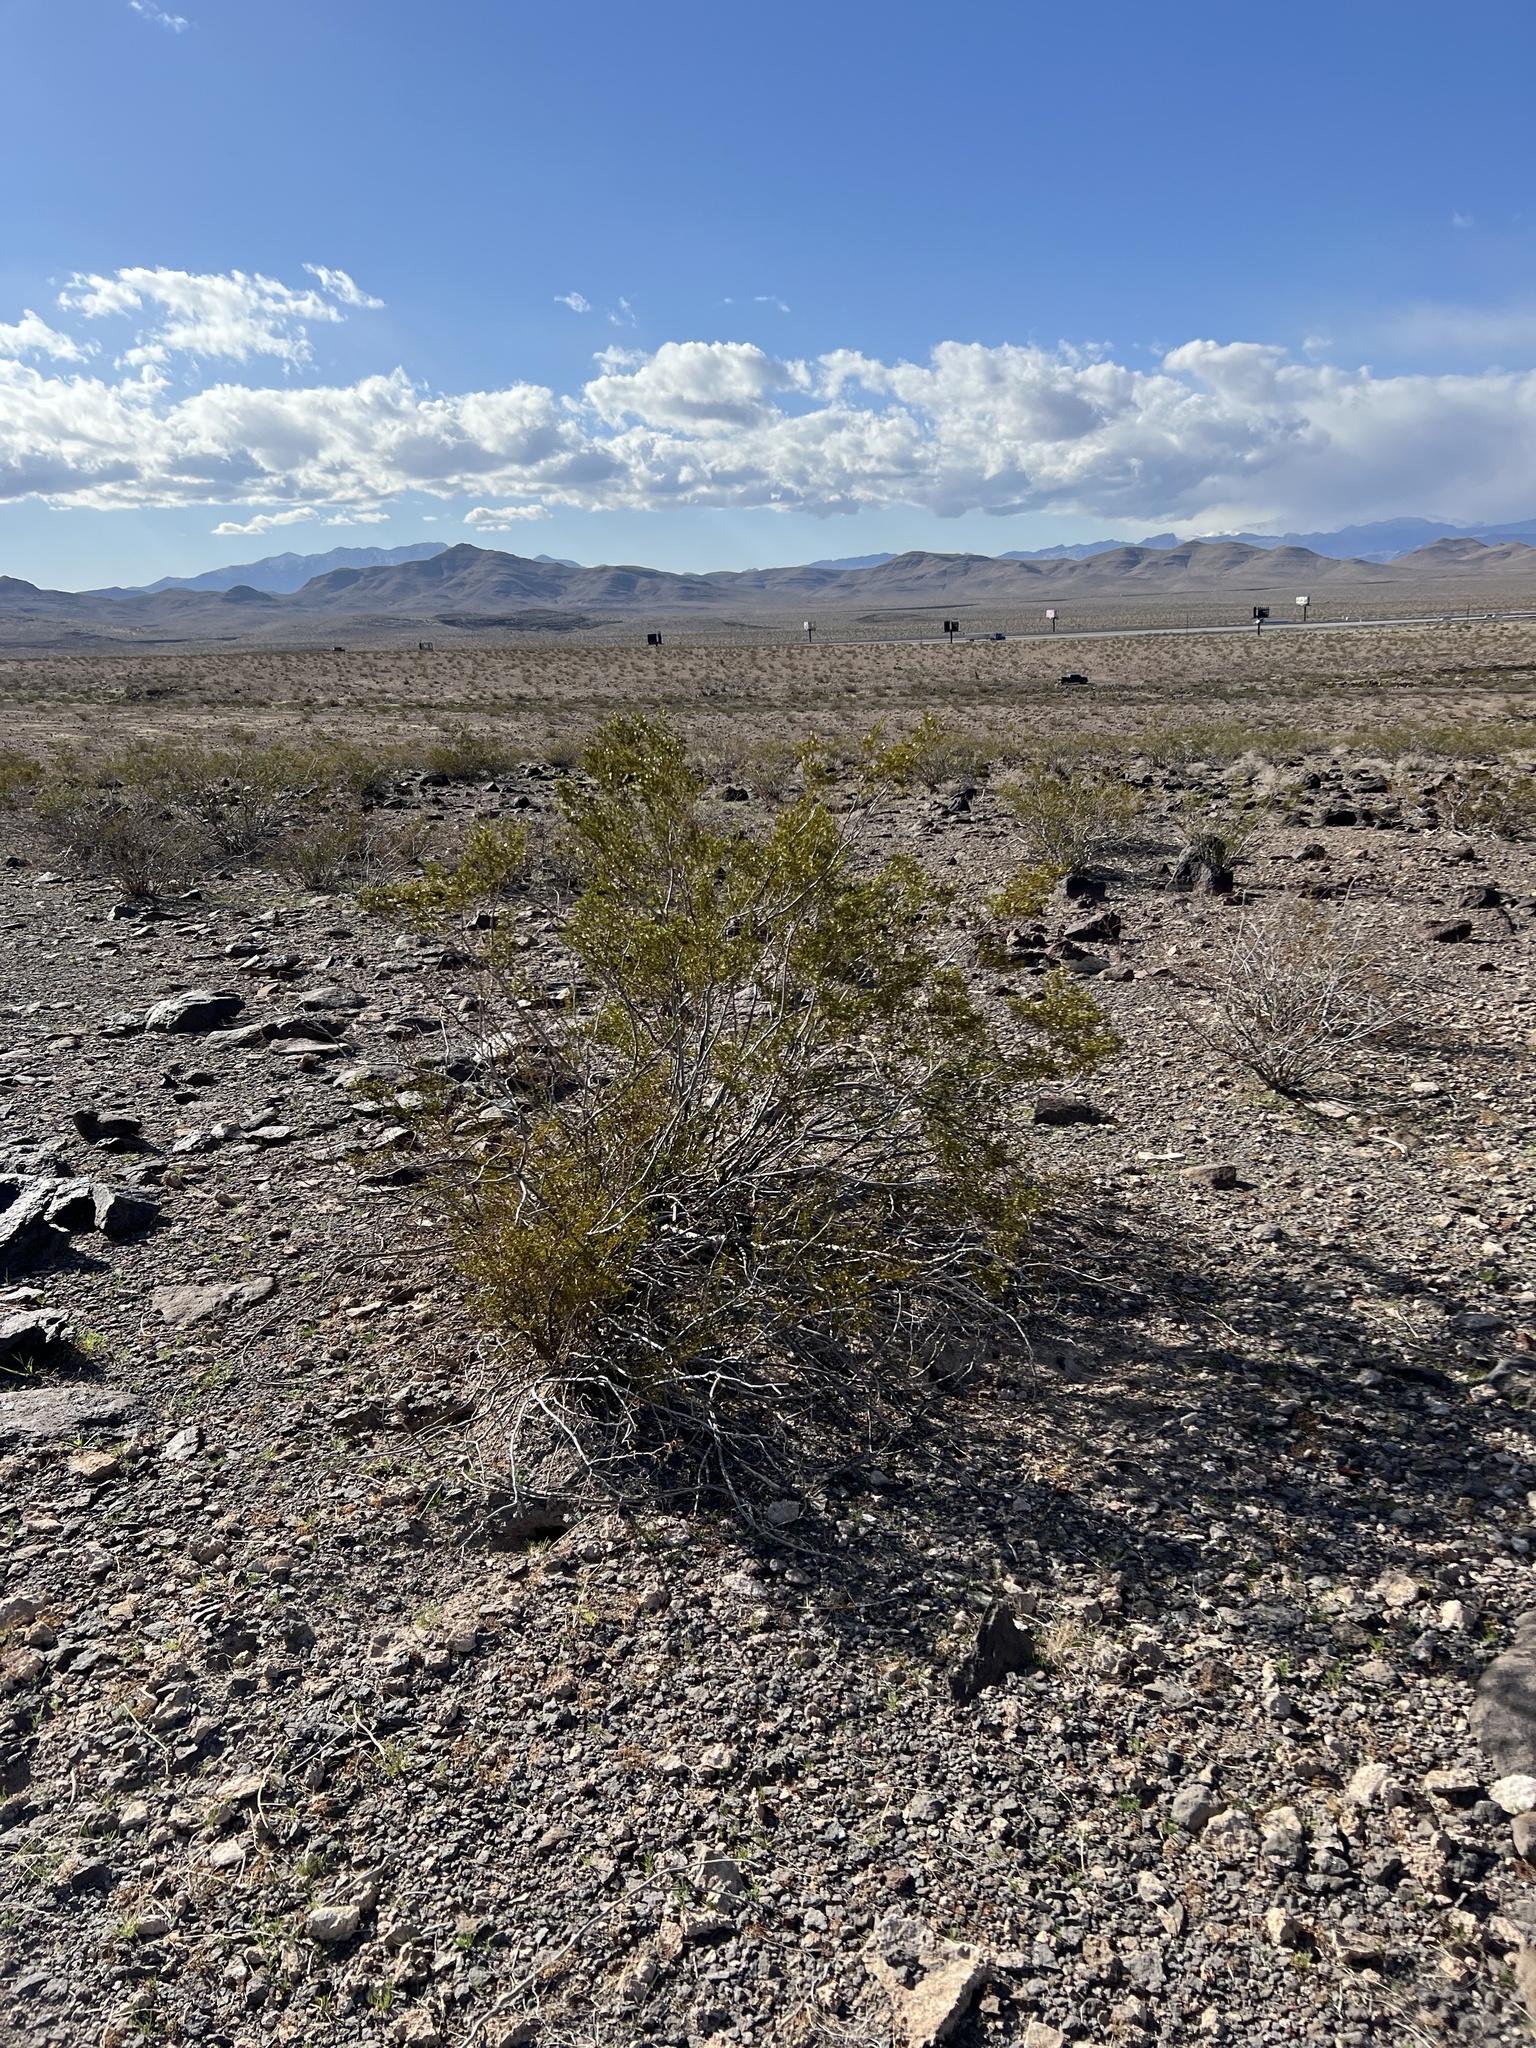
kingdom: Plantae
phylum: Tracheophyta
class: Magnoliopsida
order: Zygophyllales
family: Zygophyllaceae
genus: Larrea
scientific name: Larrea tridentata
